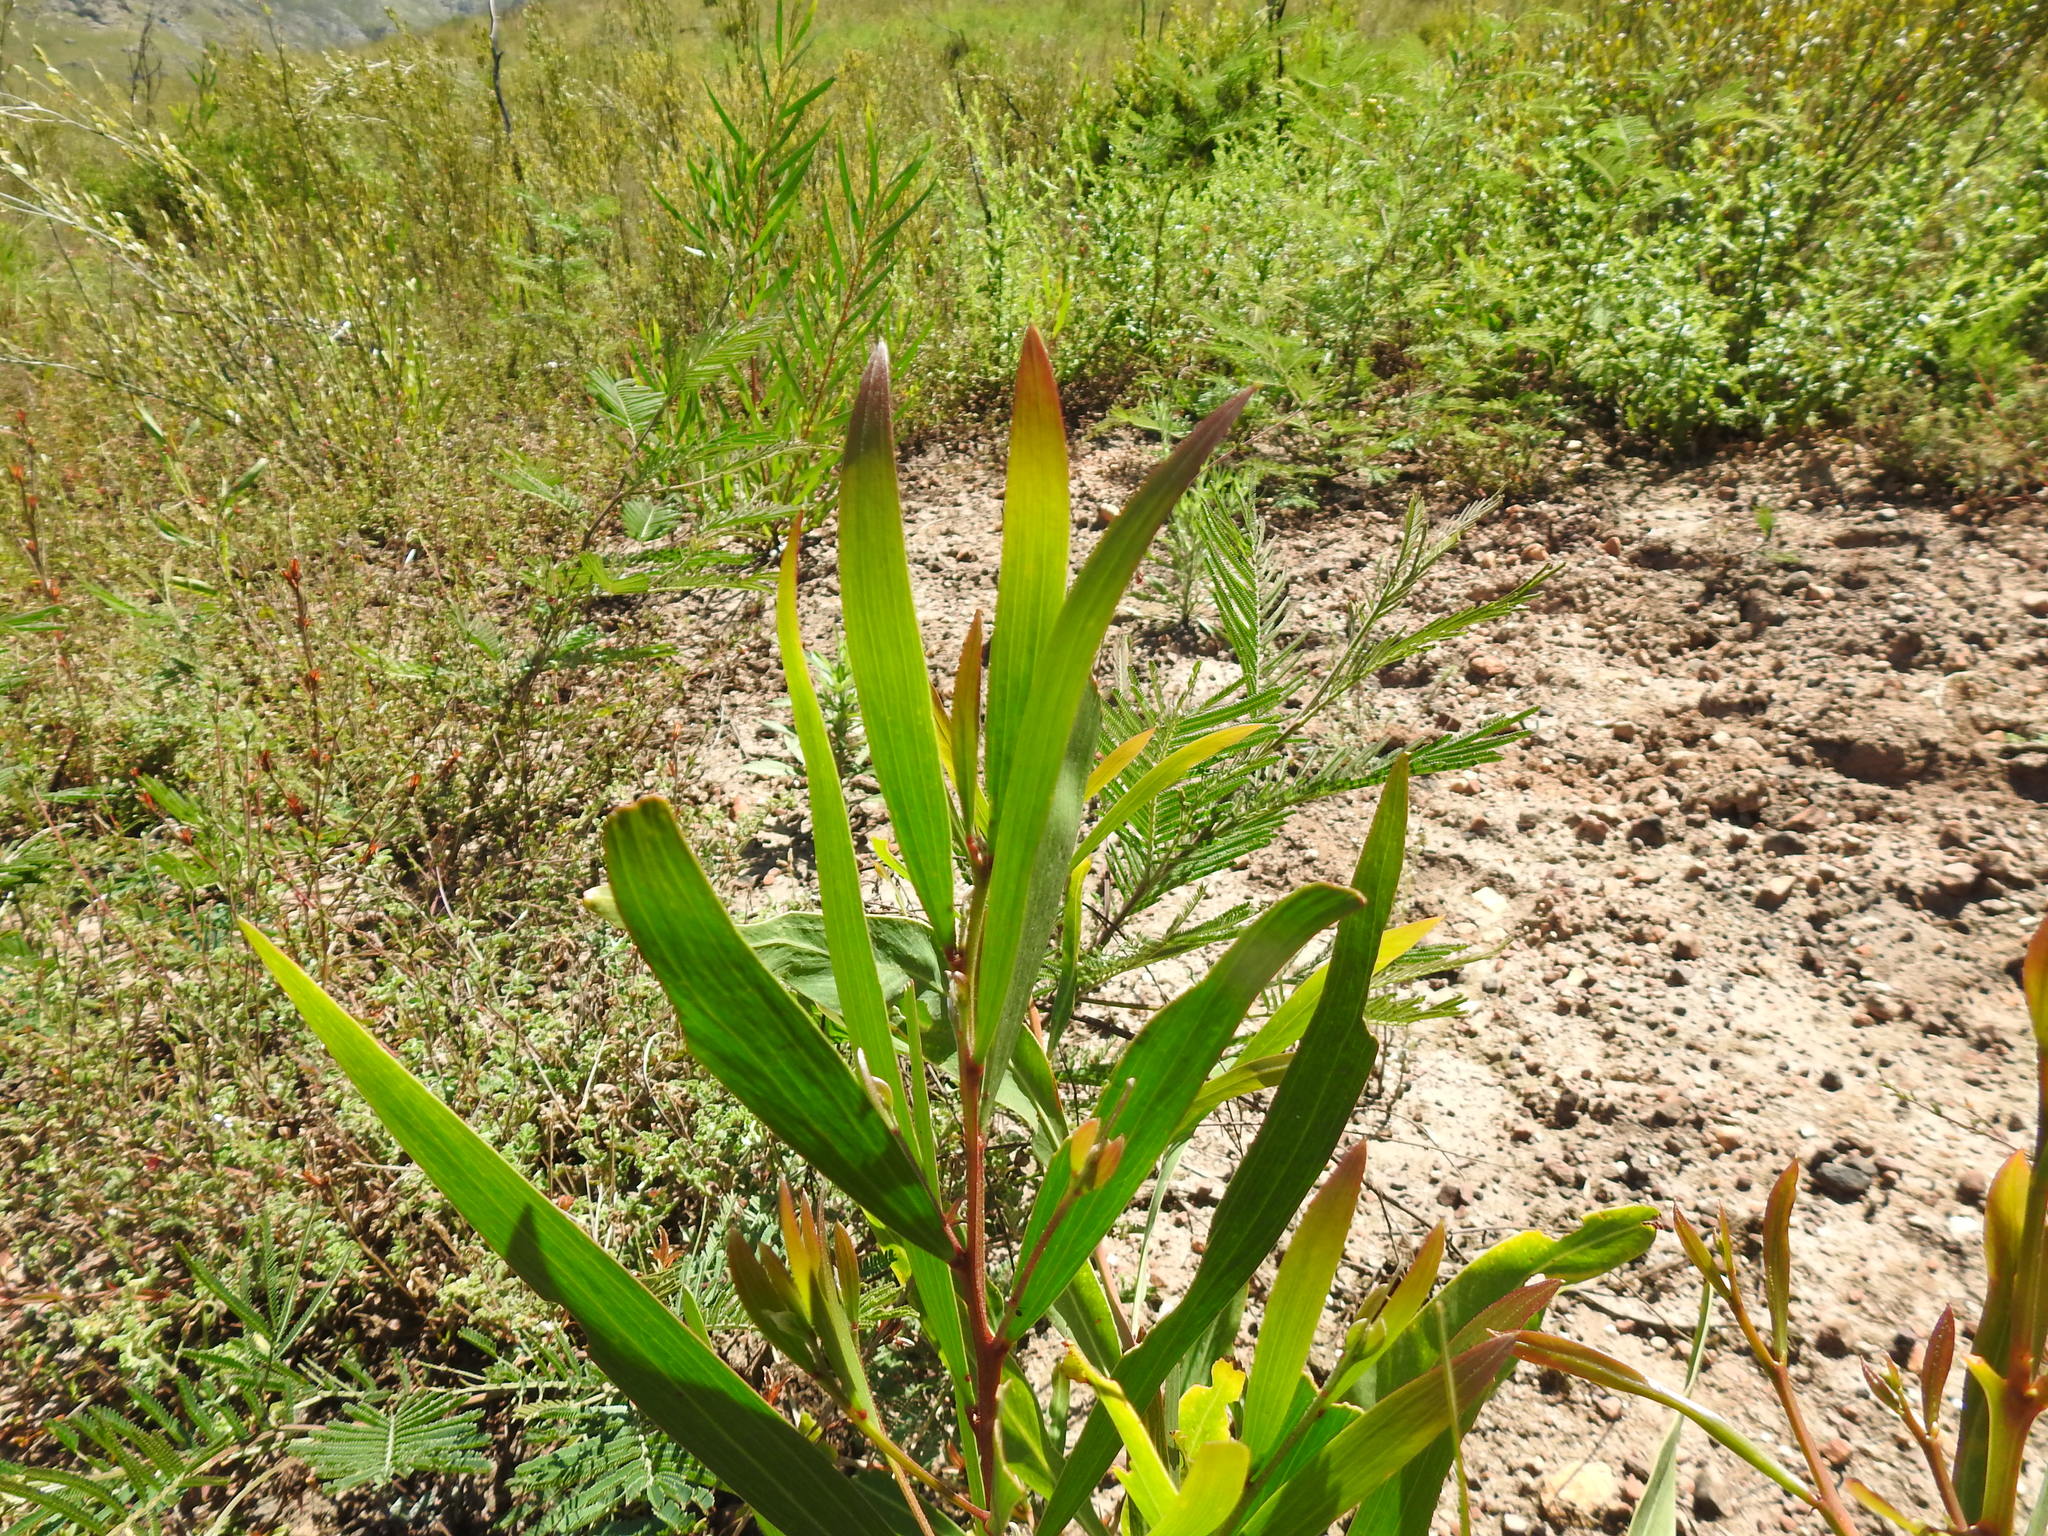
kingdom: Plantae
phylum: Tracheophyta
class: Magnoliopsida
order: Fabales
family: Fabaceae
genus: Acacia
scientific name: Acacia saligna
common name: Orange wattle
